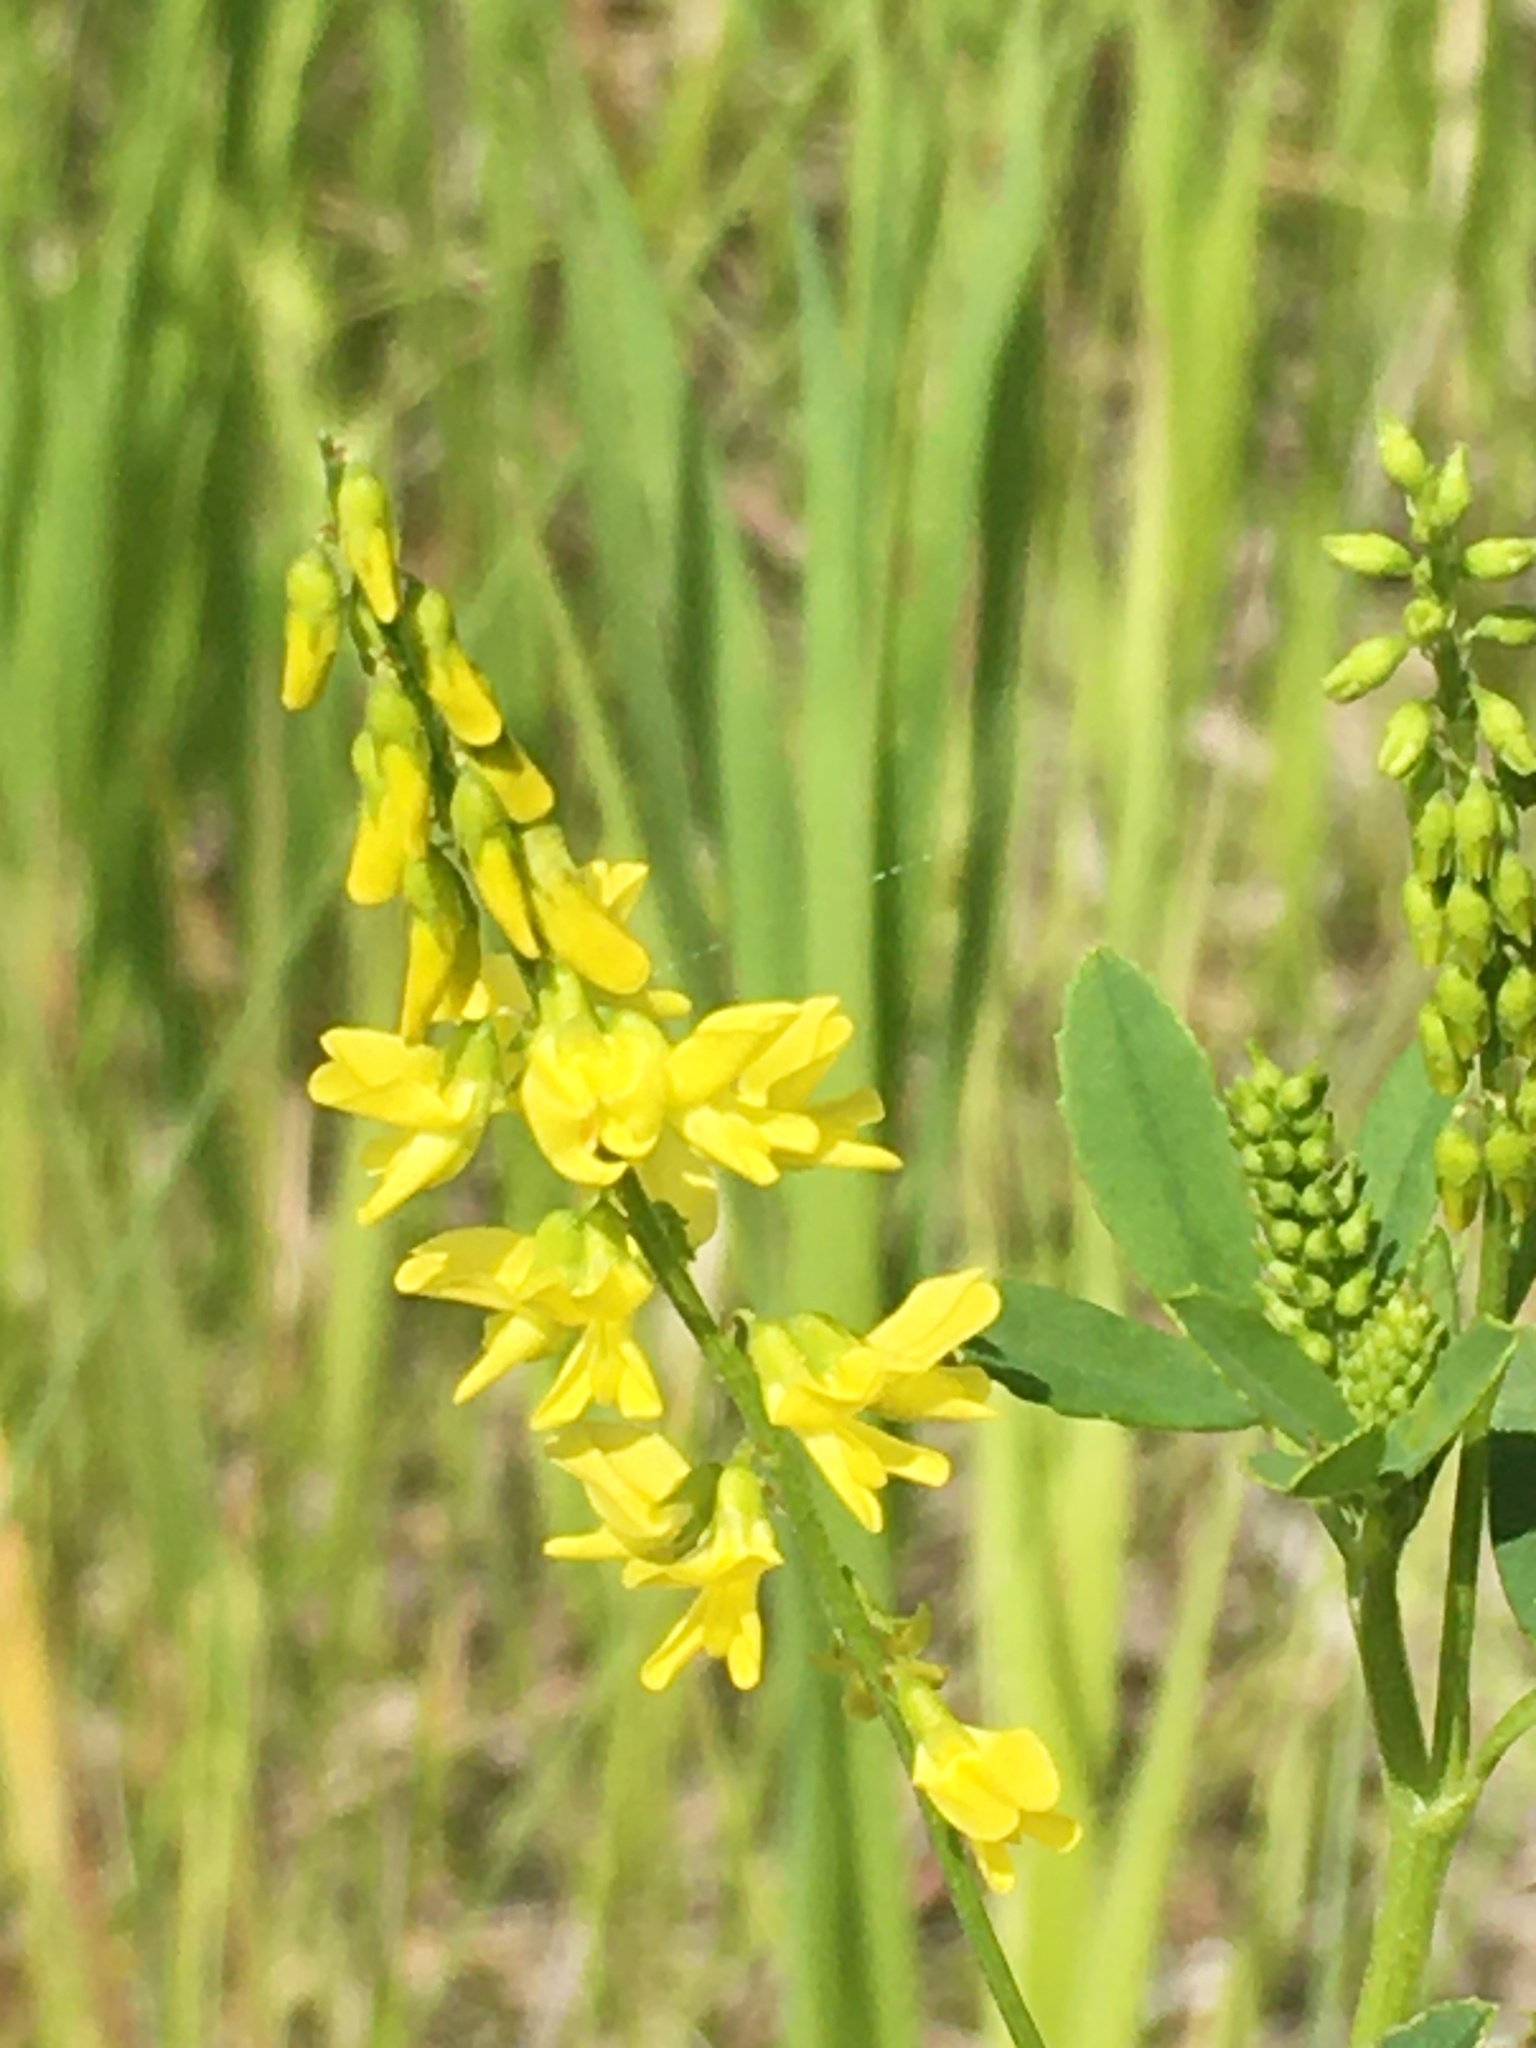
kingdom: Plantae
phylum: Tracheophyta
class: Magnoliopsida
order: Fabales
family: Fabaceae
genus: Melilotus
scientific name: Melilotus officinalis
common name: Sweetclover
